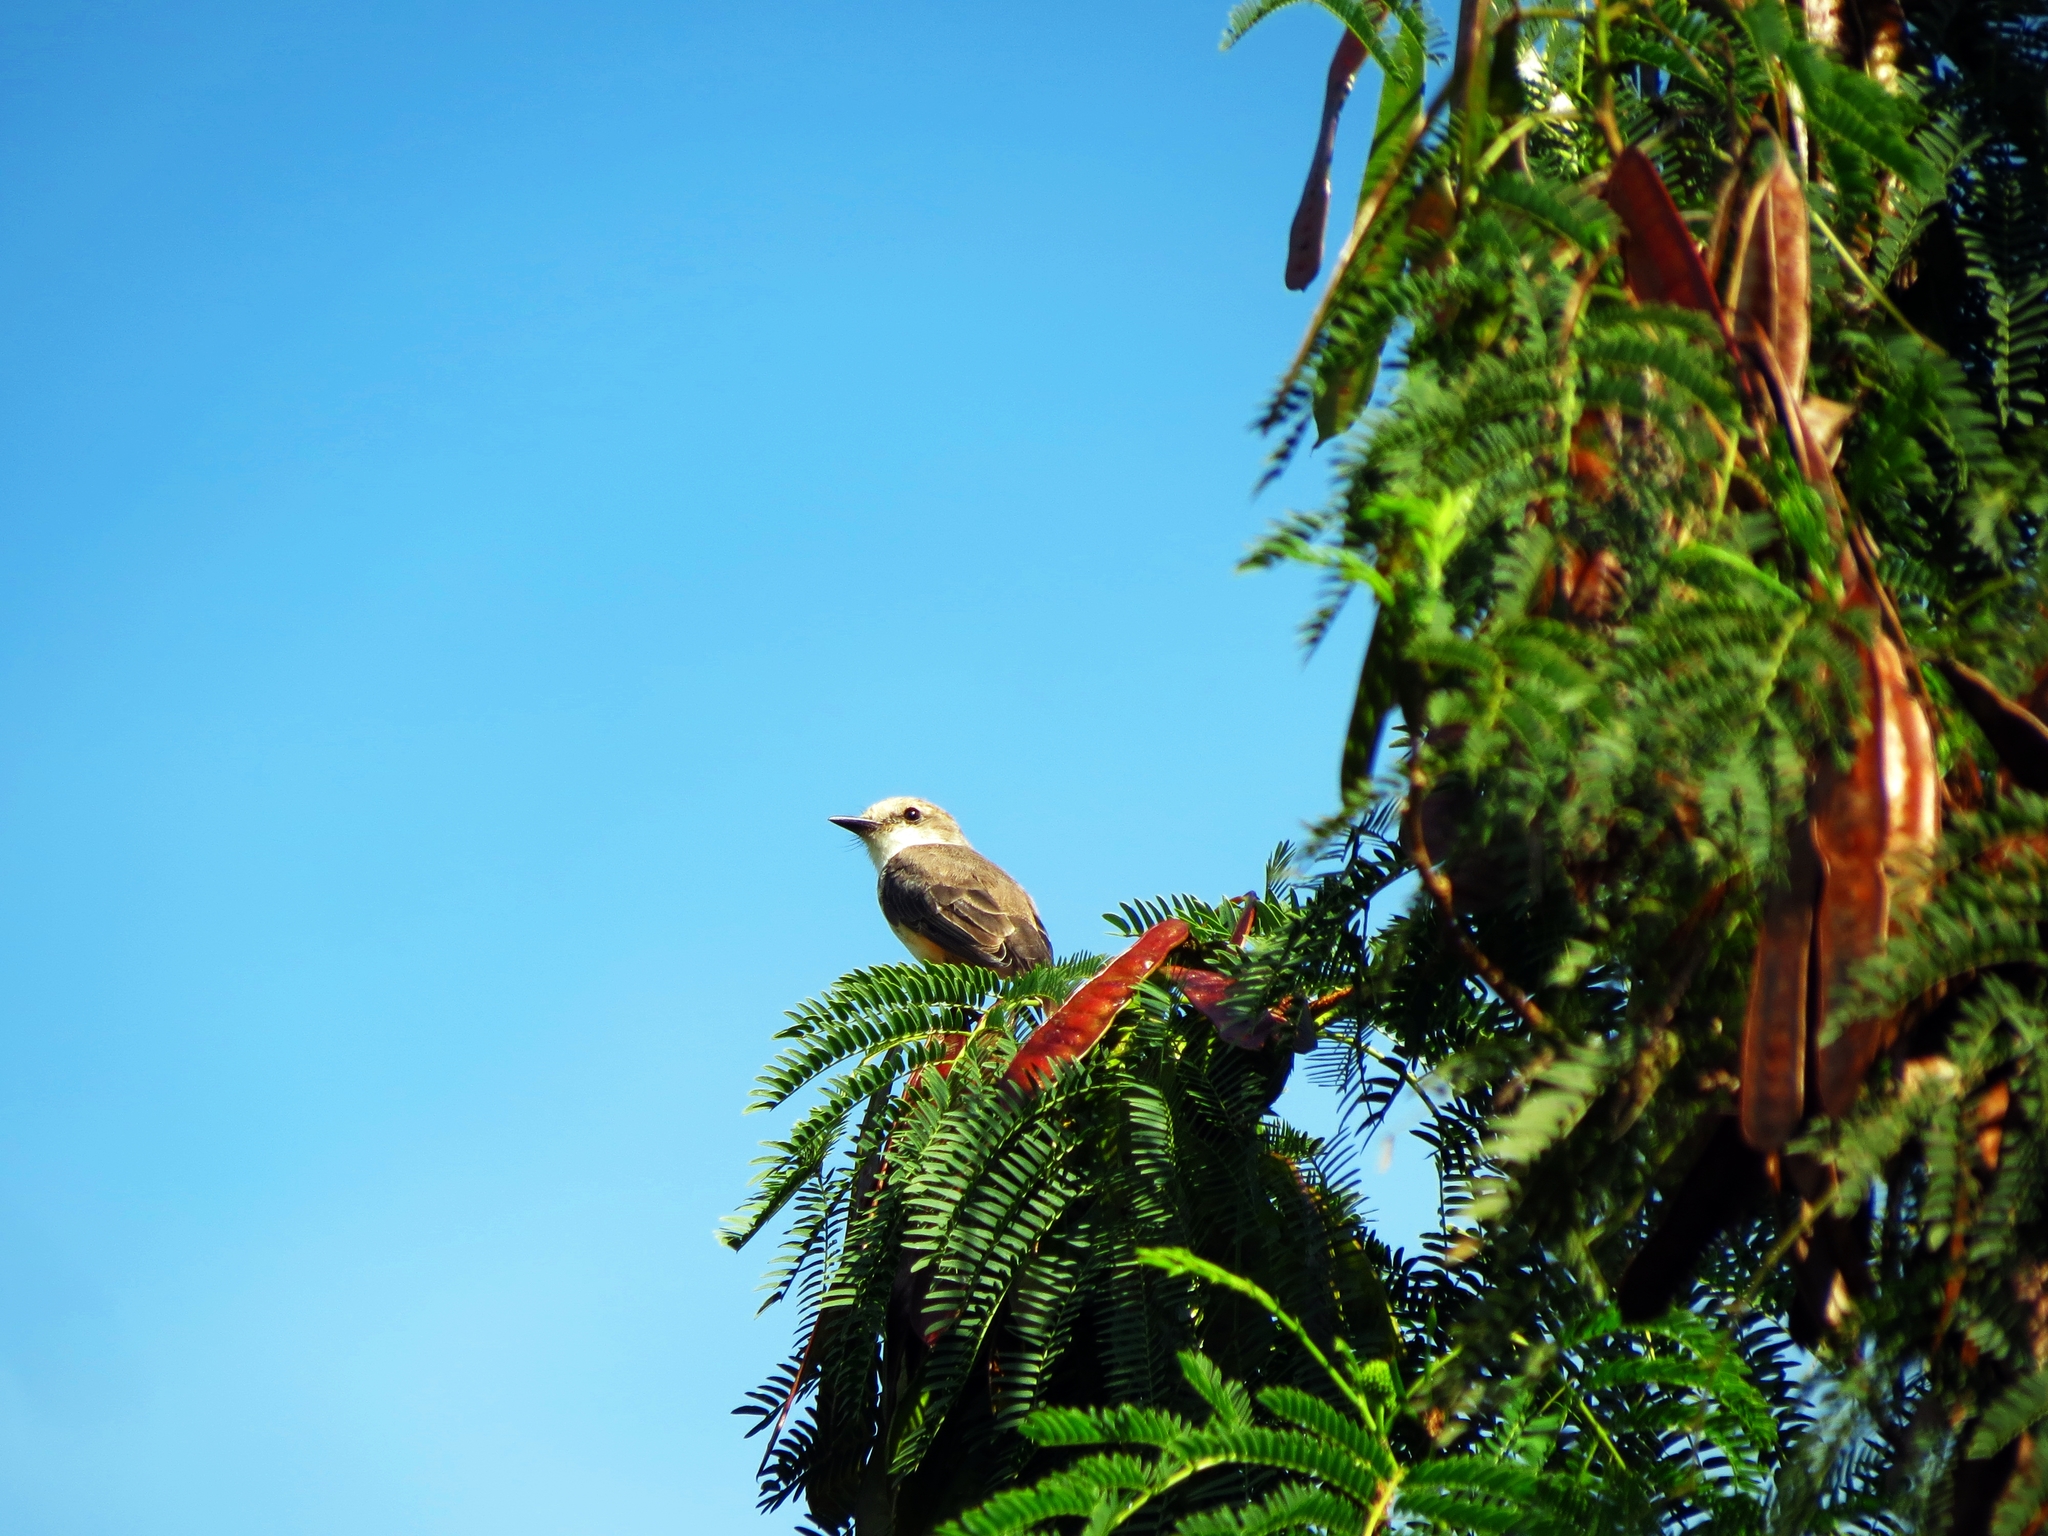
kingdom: Animalia
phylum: Chordata
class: Aves
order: Passeriformes
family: Tyrannidae
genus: Pyrocephalus
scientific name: Pyrocephalus rubinus
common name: Vermilion flycatcher
